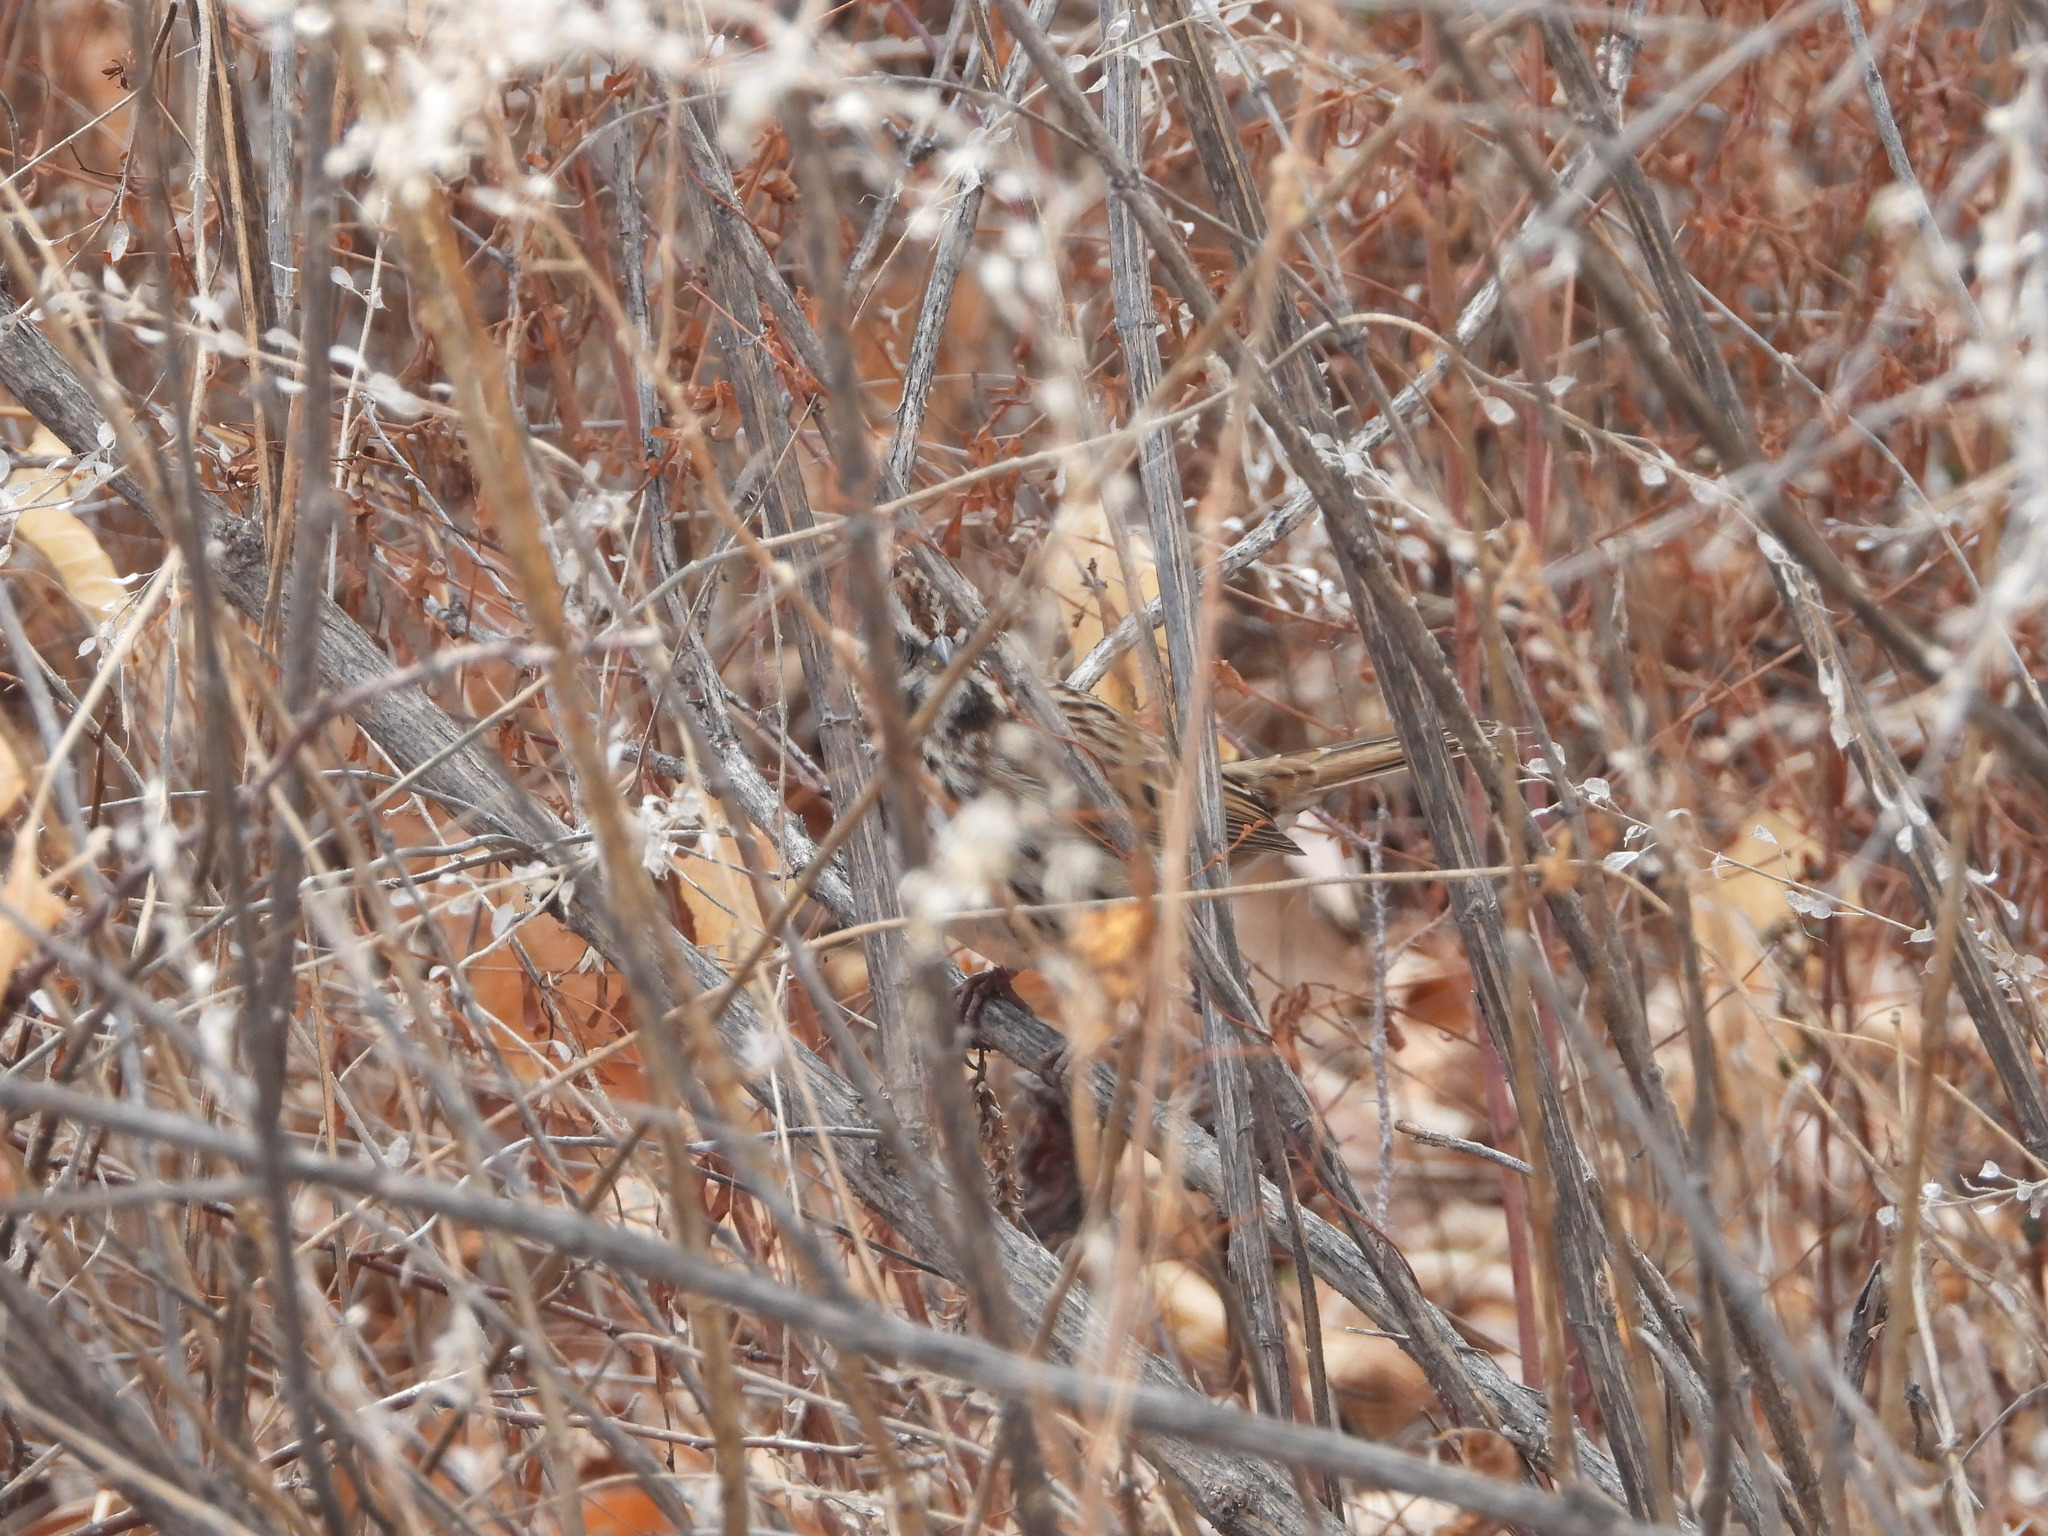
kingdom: Animalia
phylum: Chordata
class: Aves
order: Passeriformes
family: Passerellidae
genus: Melospiza
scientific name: Melospiza melodia
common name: Song sparrow
